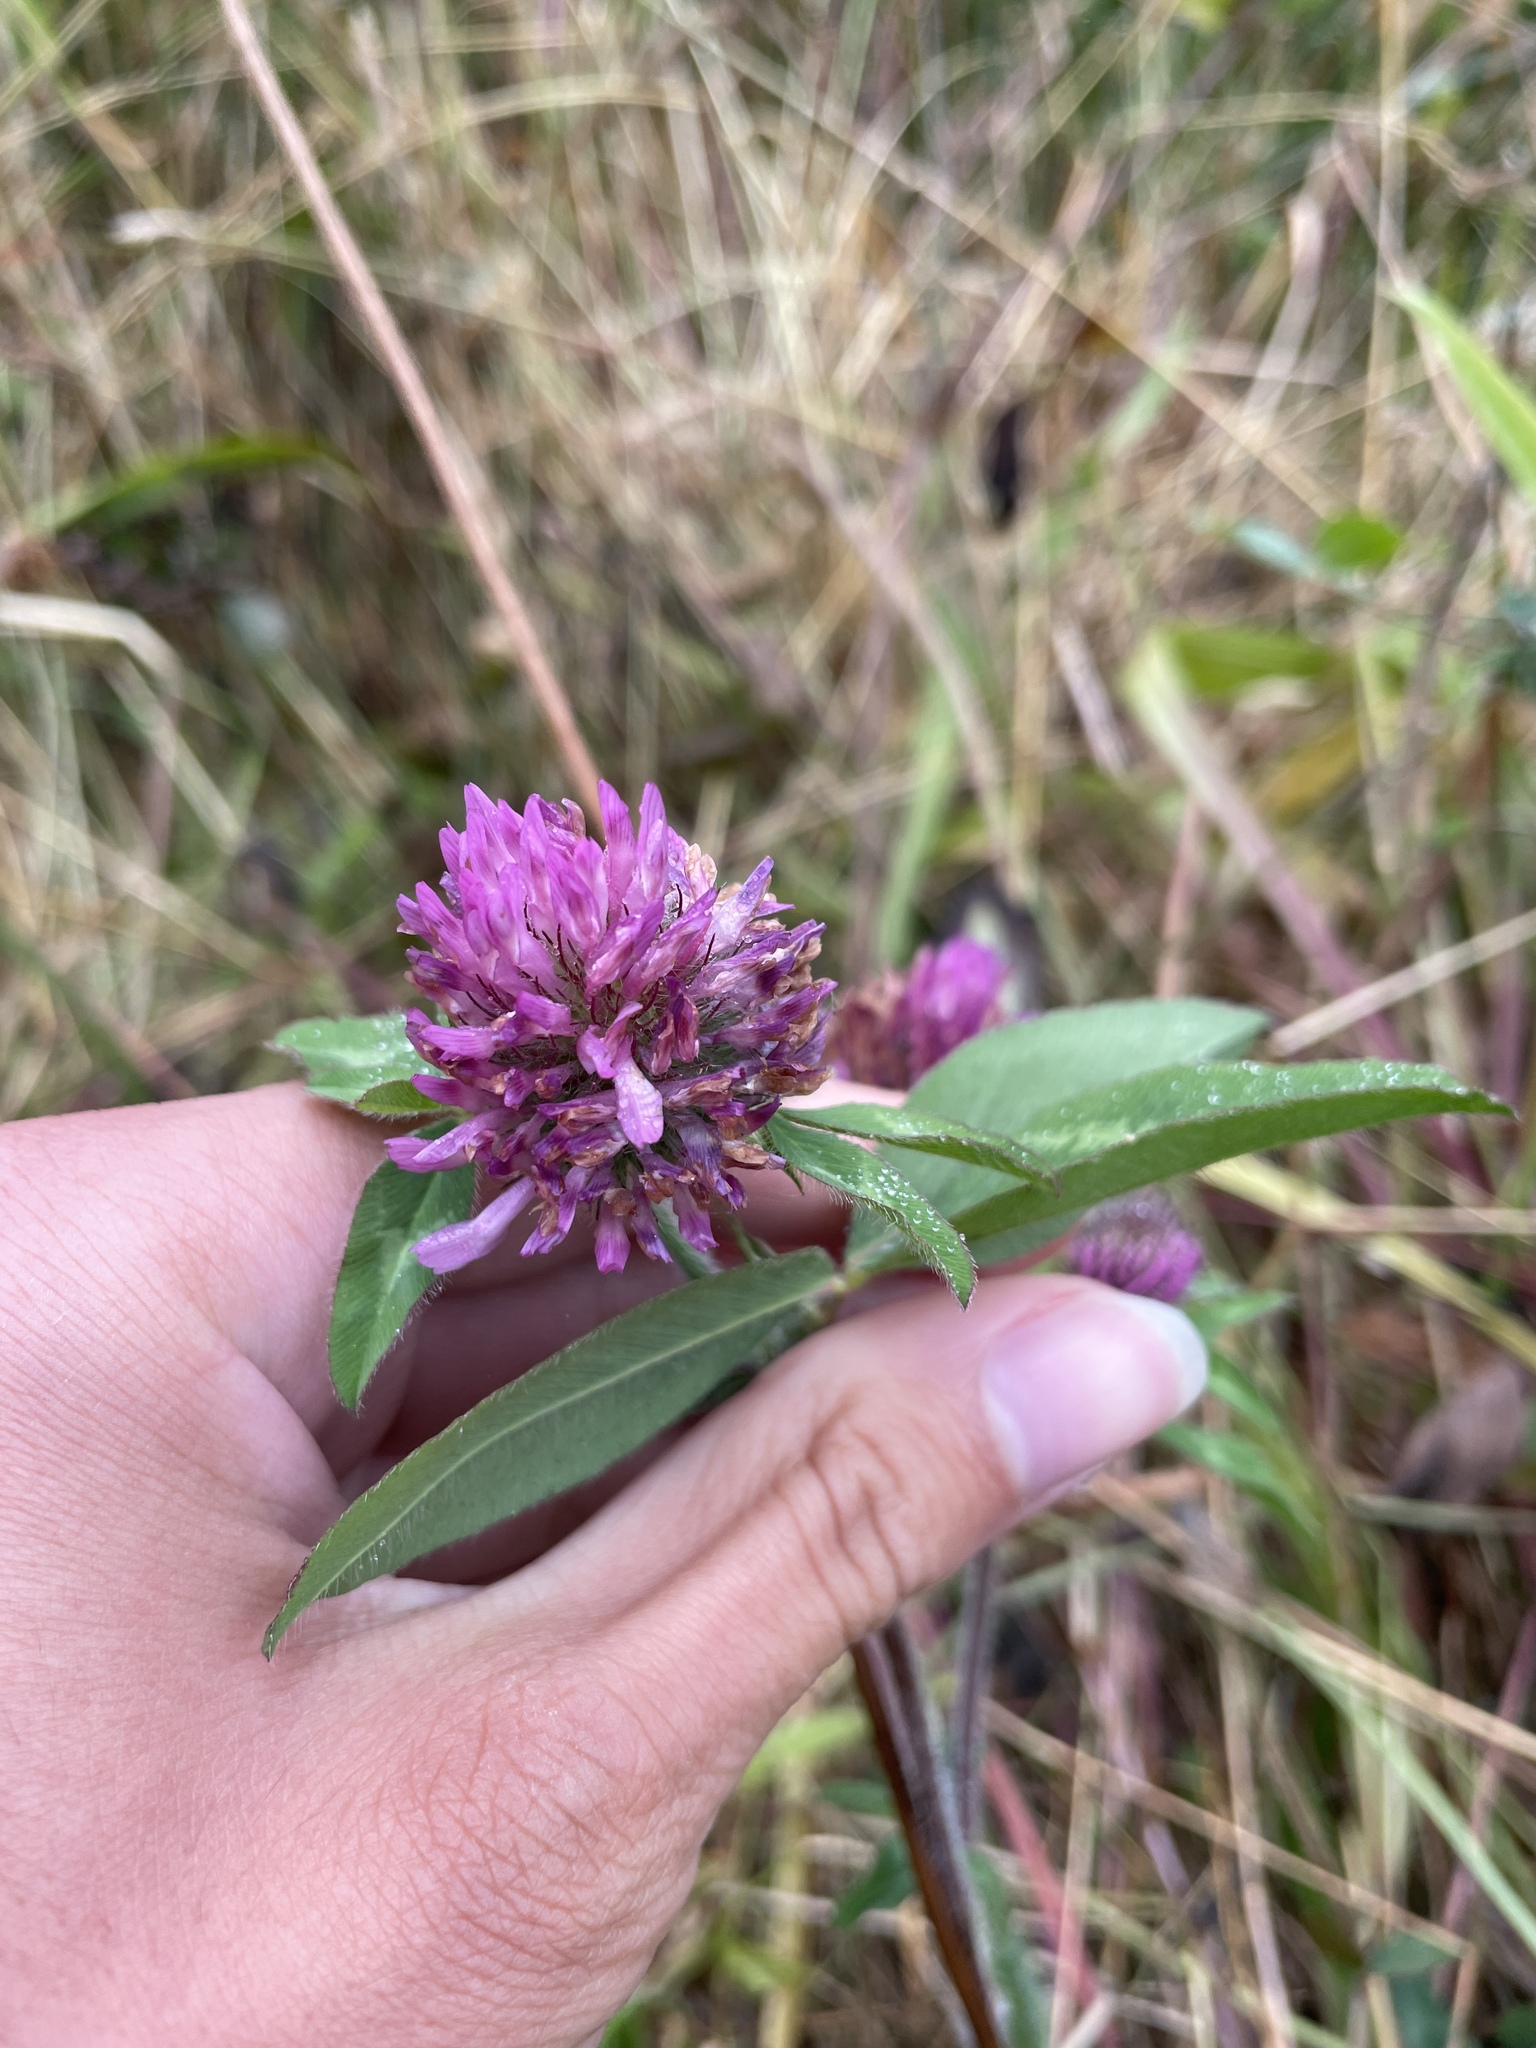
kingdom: Plantae
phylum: Tracheophyta
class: Magnoliopsida
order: Fabales
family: Fabaceae
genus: Trifolium
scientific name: Trifolium pratense
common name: Red clover
